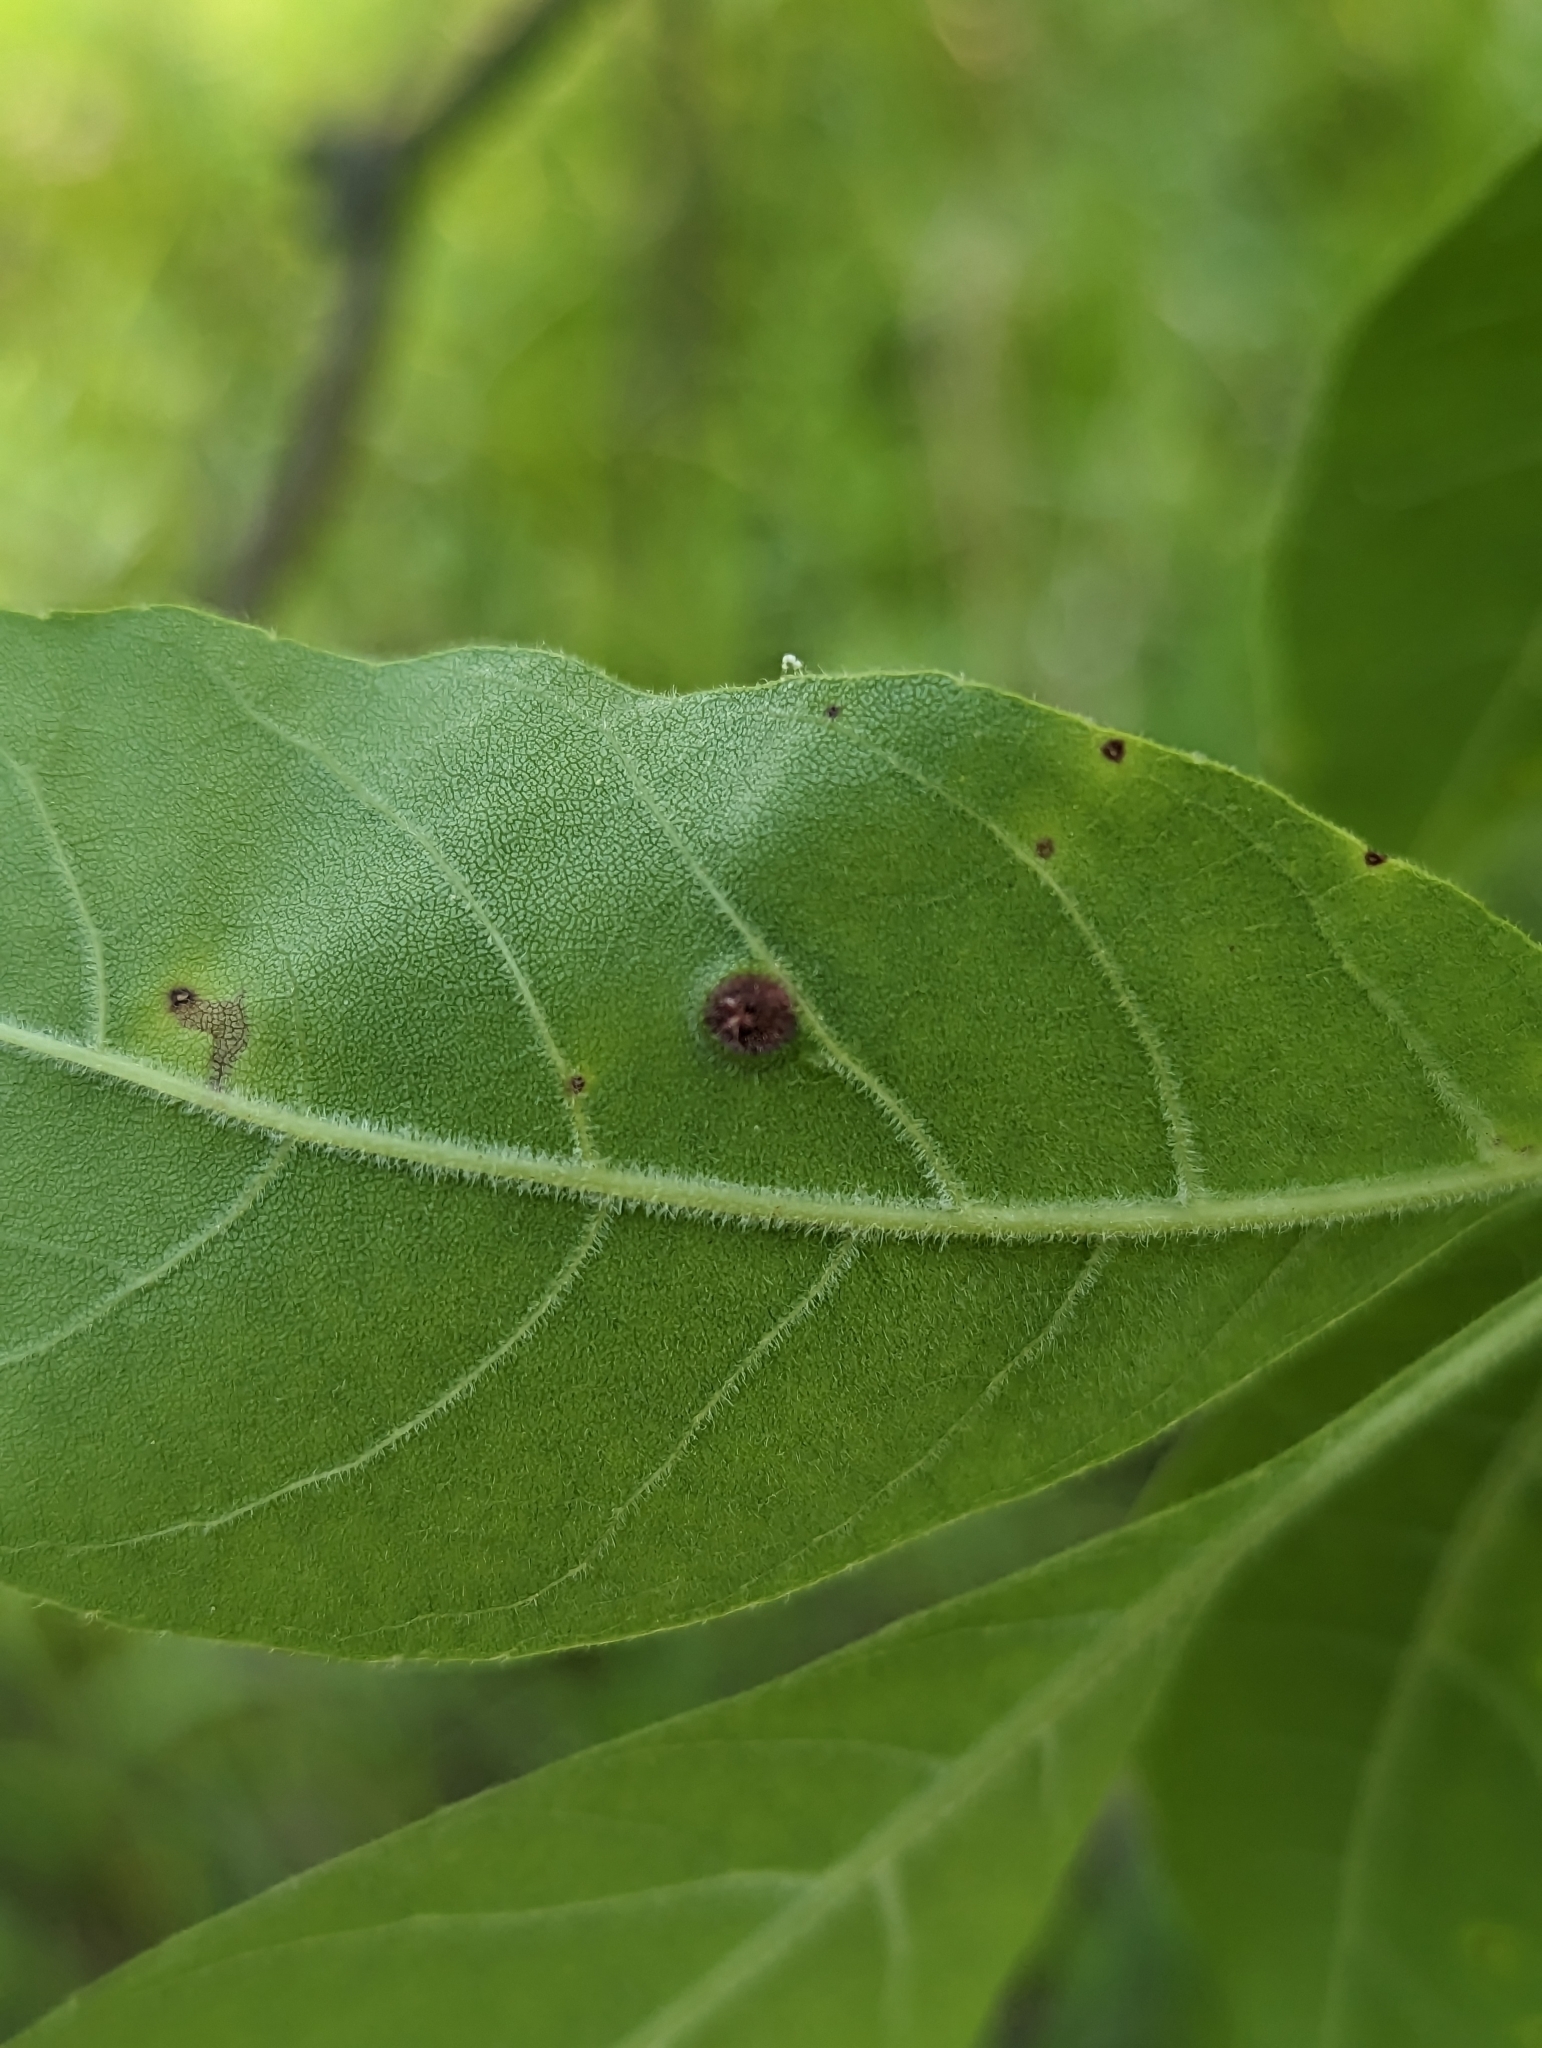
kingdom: Animalia
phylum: Arthropoda
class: Insecta
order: Diptera
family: Cecidomyiidae
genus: Dasineura
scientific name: Dasineura pellex
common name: Ash bullet gall midge
